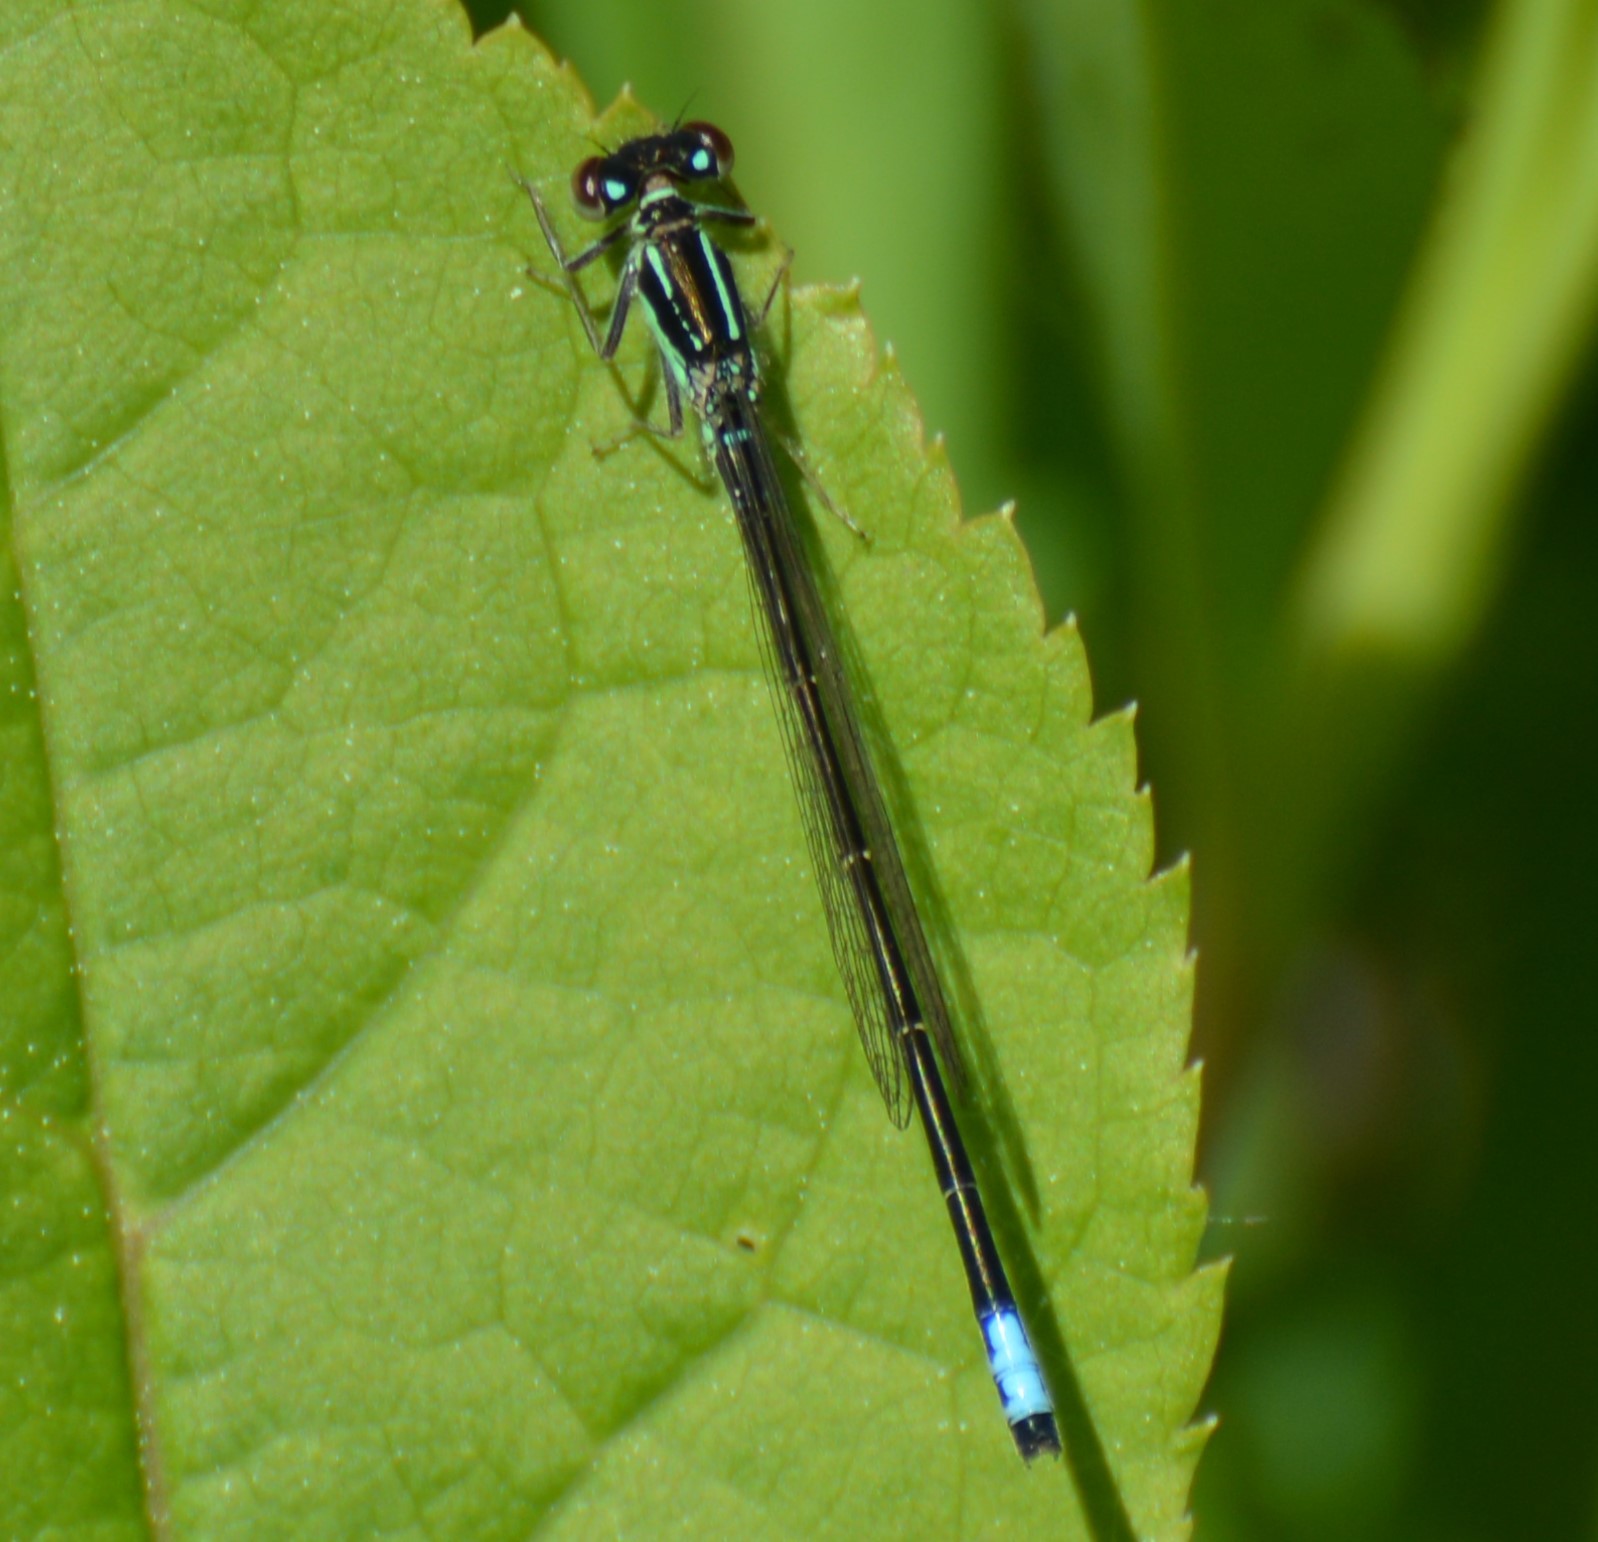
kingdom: Animalia
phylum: Arthropoda
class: Insecta
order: Odonata
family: Coenagrionidae
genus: Ischnura
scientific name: Ischnura verticalis
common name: Eastern forktail
